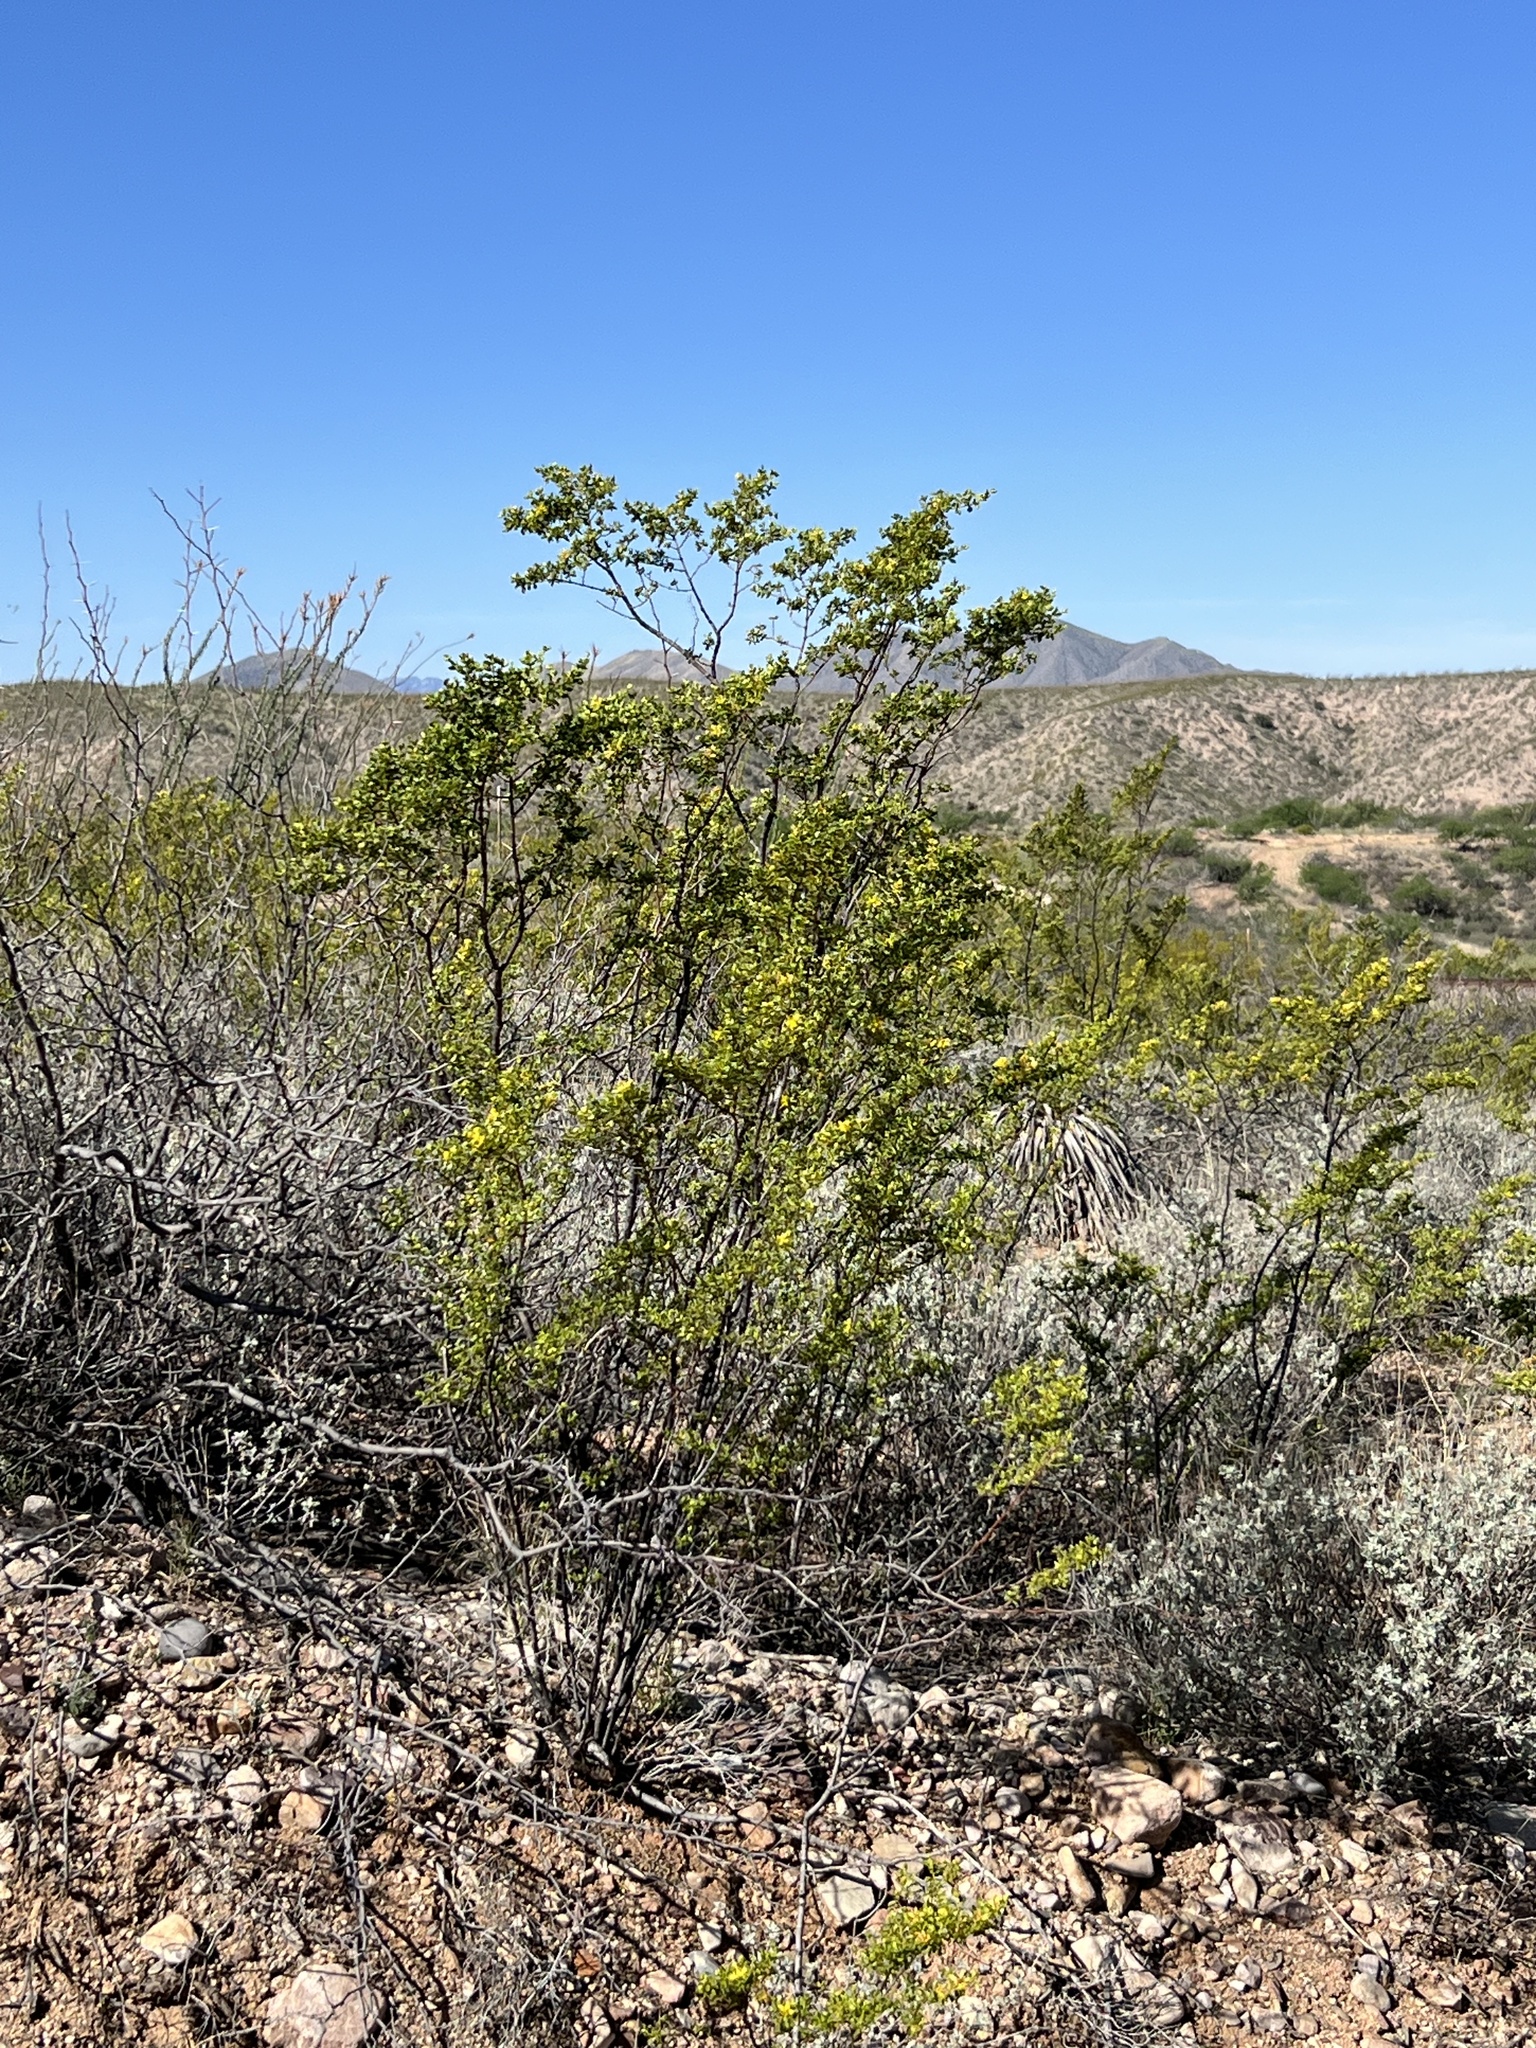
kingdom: Plantae
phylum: Tracheophyta
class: Magnoliopsida
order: Zygophyllales
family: Zygophyllaceae
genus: Larrea
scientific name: Larrea tridentata
